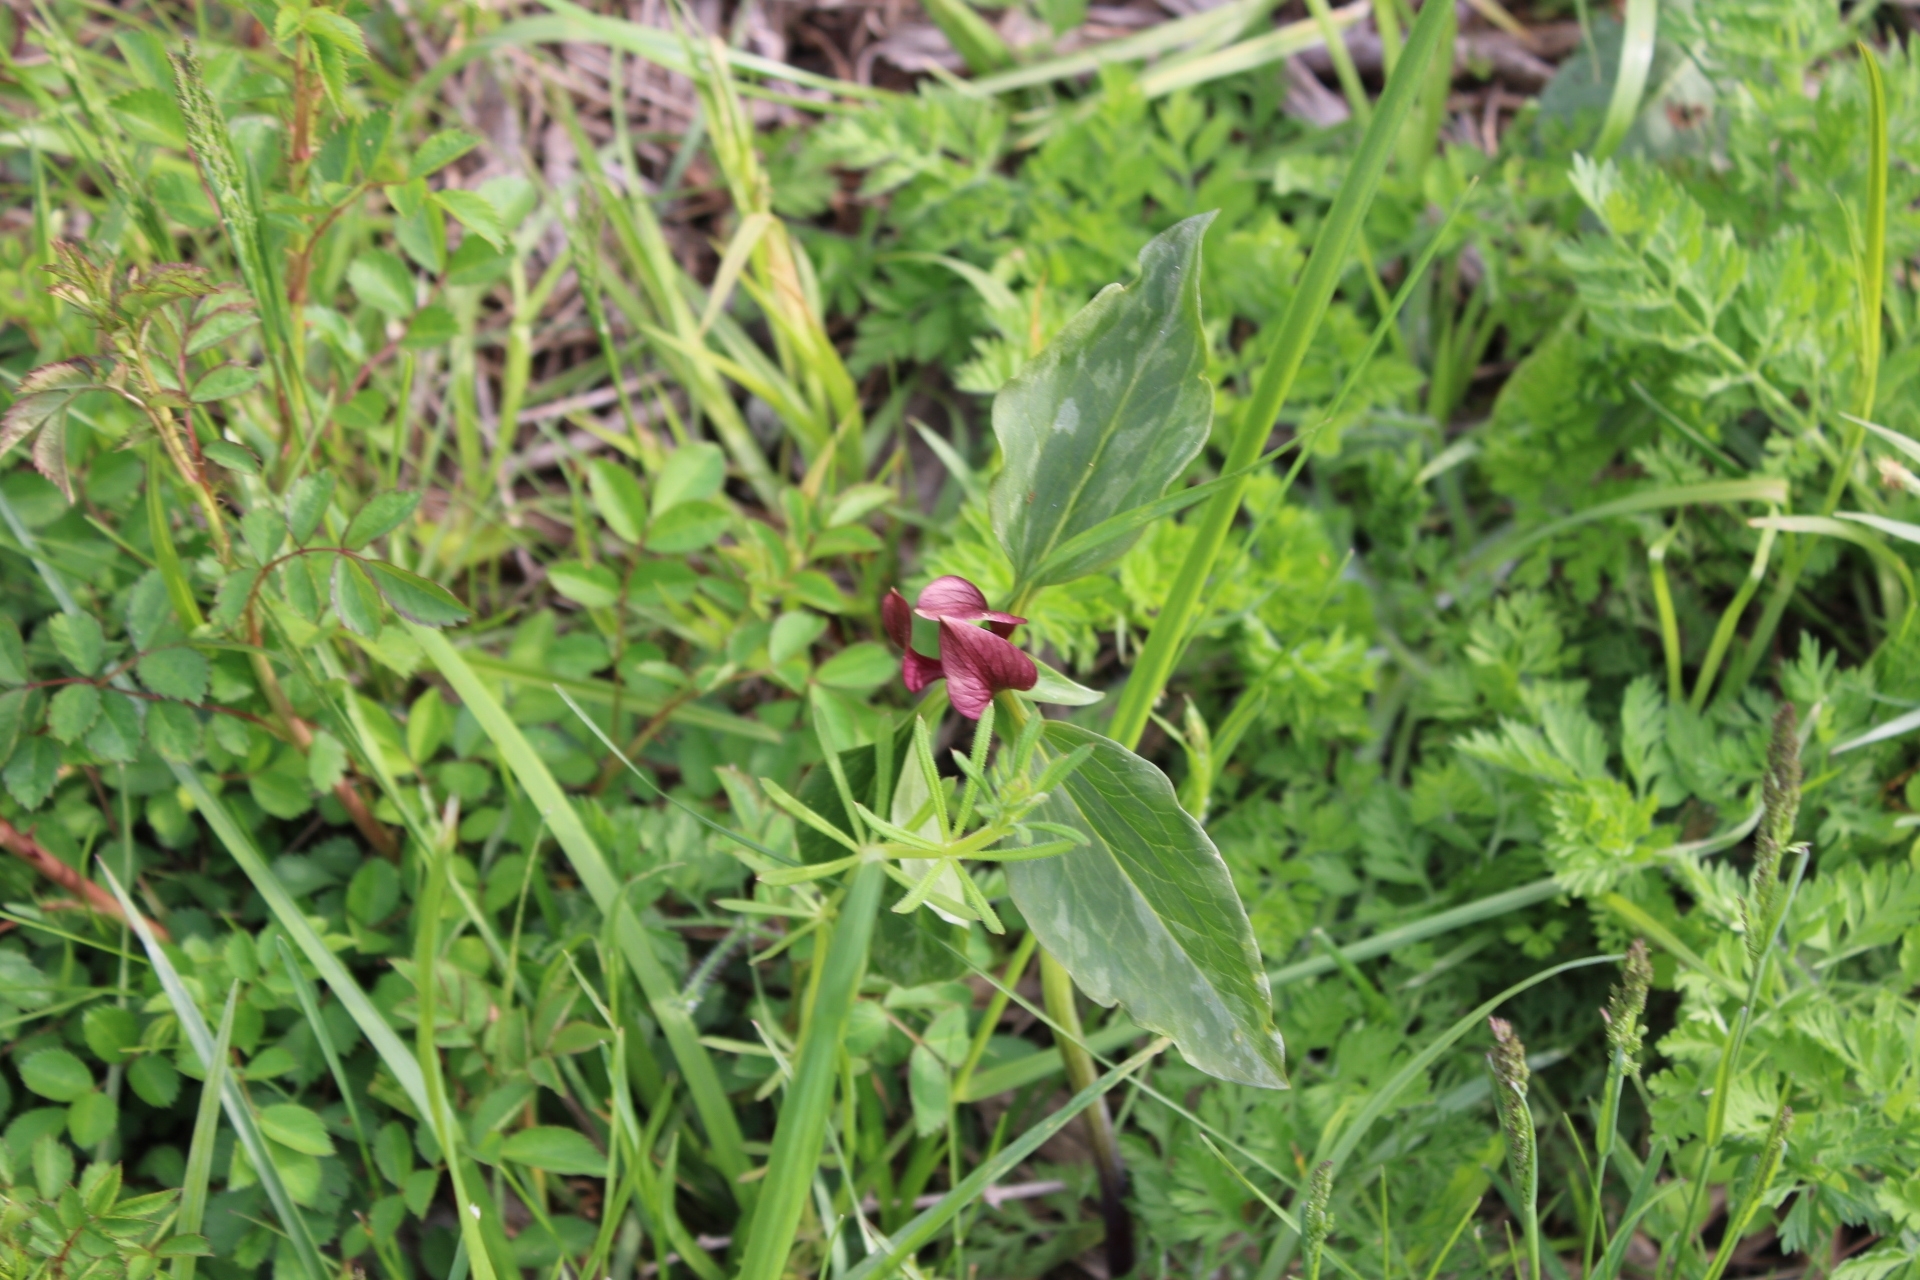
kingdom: Plantae
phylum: Tracheophyta
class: Liliopsida
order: Liliales
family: Melanthiaceae
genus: Trillium
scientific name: Trillium recurvatum
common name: Bloody butcher
